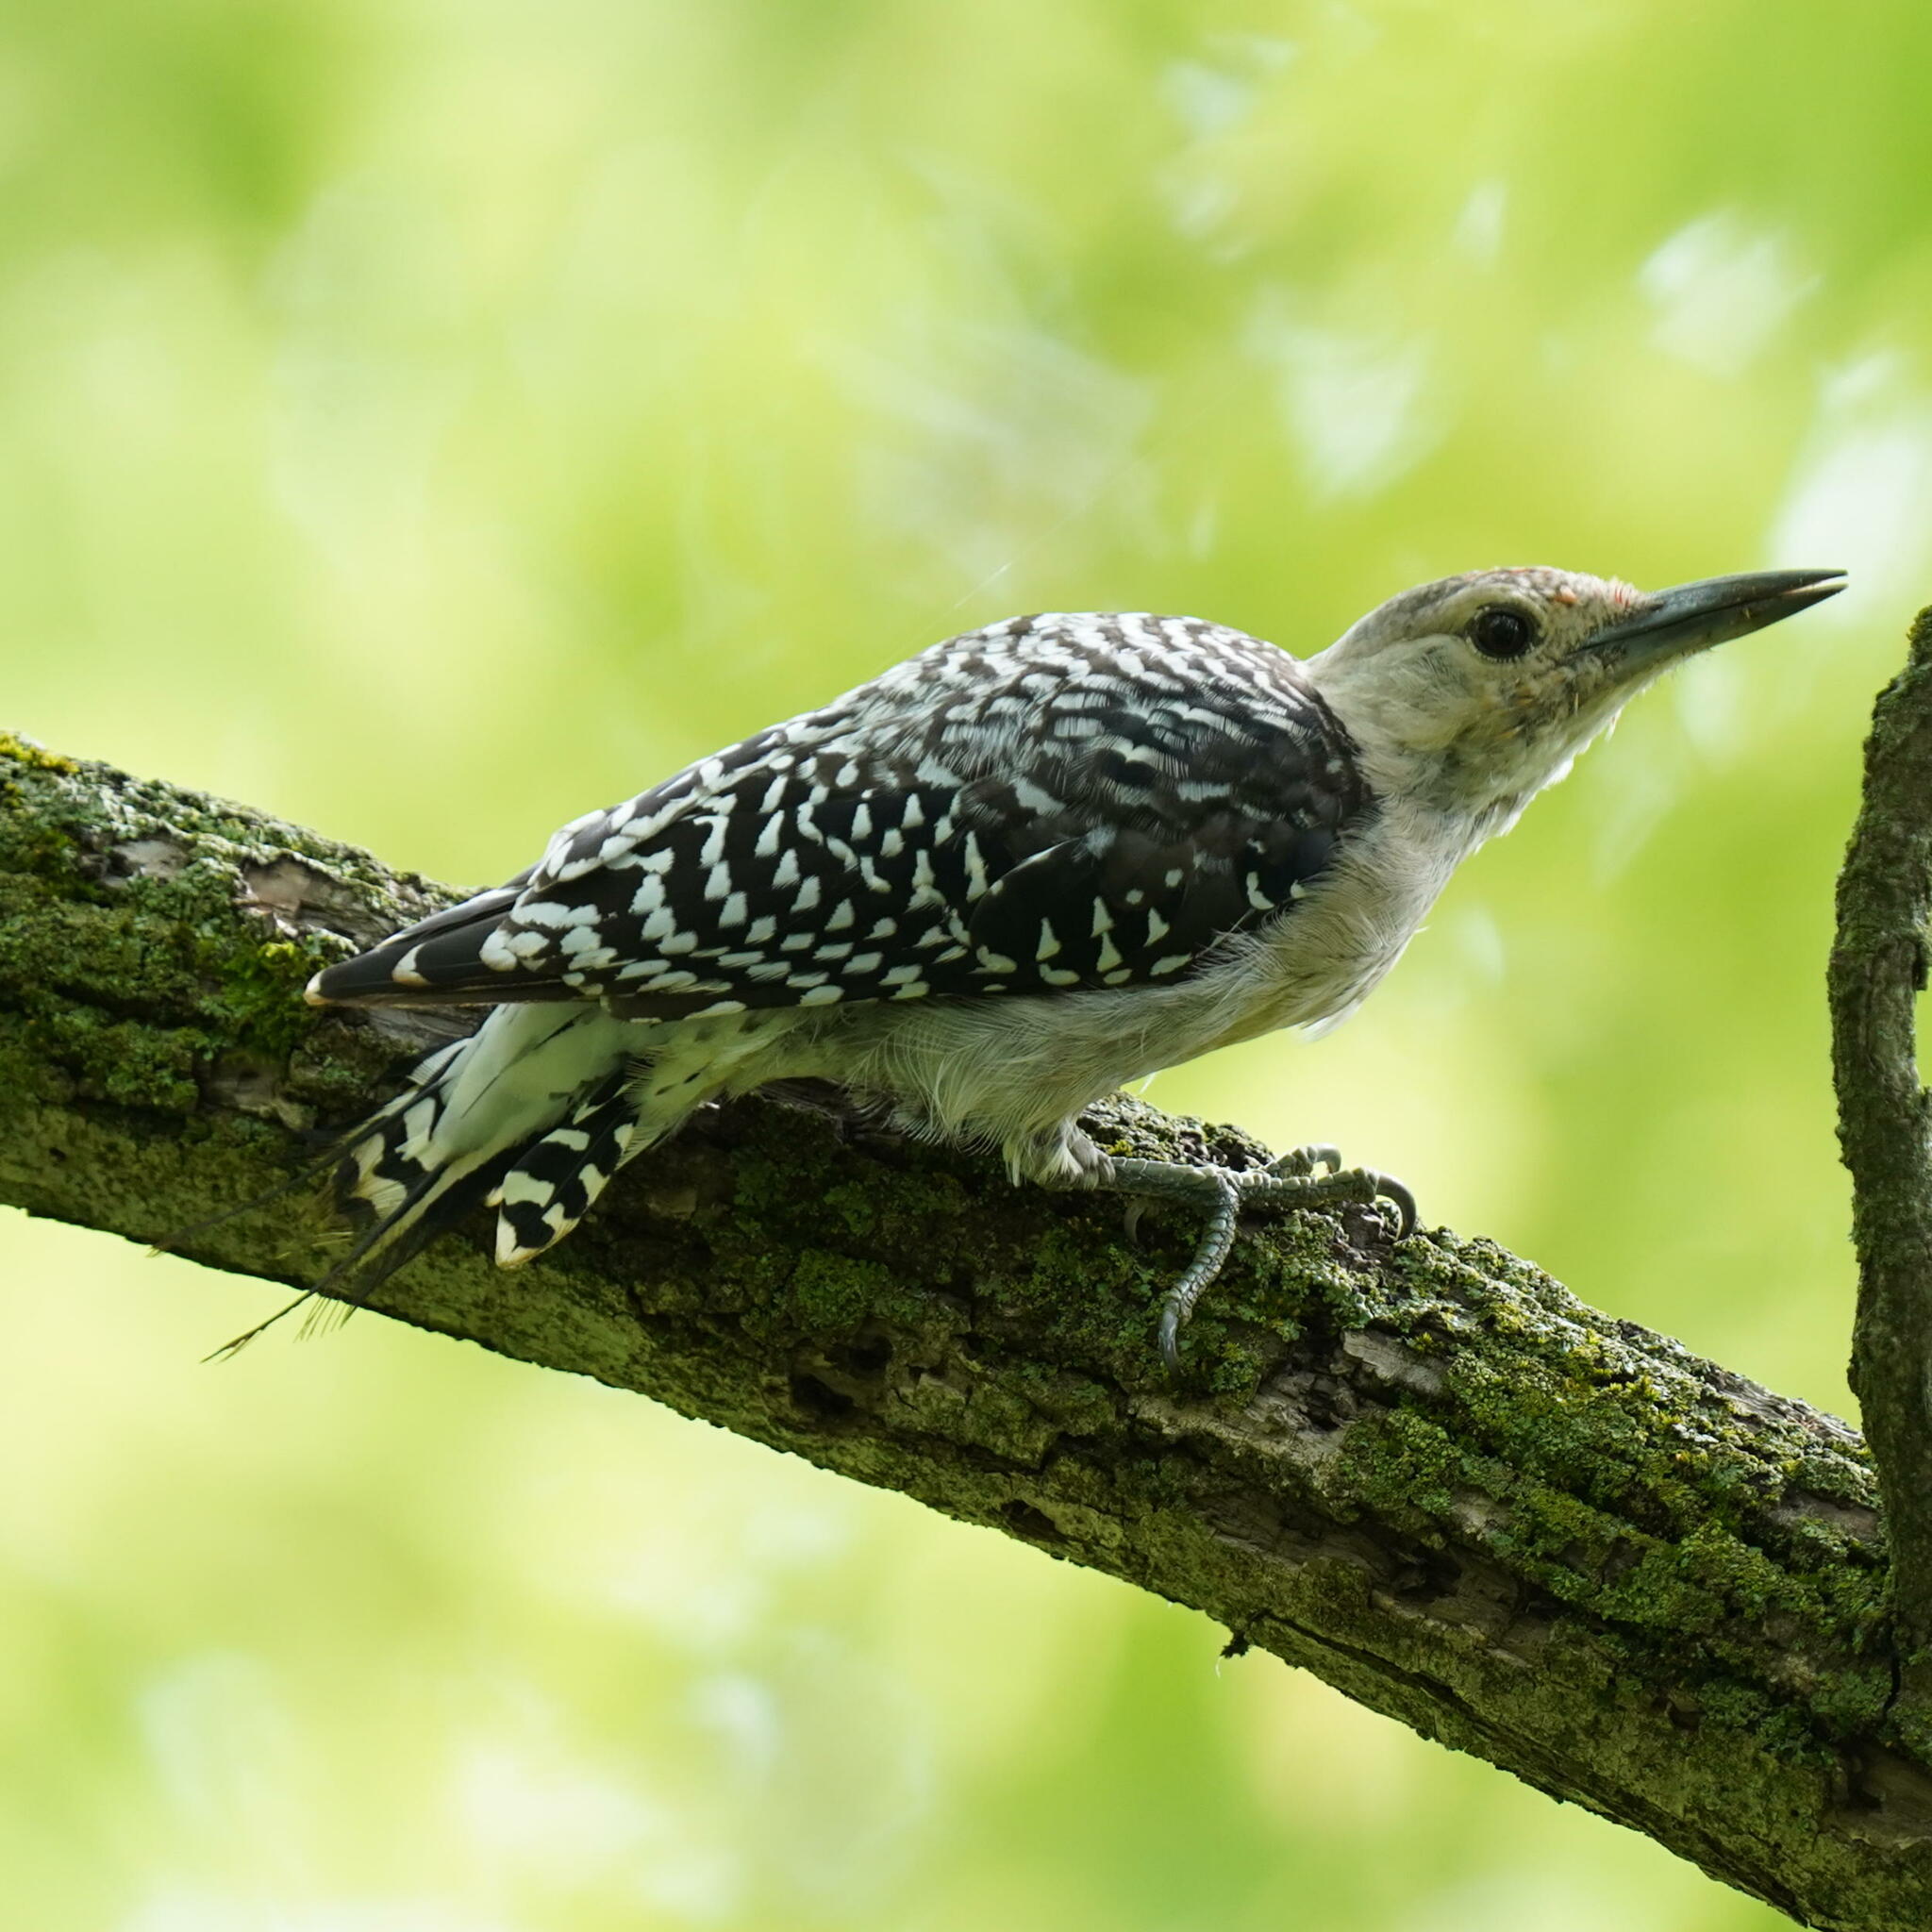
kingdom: Animalia
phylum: Chordata
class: Aves
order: Piciformes
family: Picidae
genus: Melanerpes
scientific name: Melanerpes carolinus
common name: Red-bellied woodpecker
